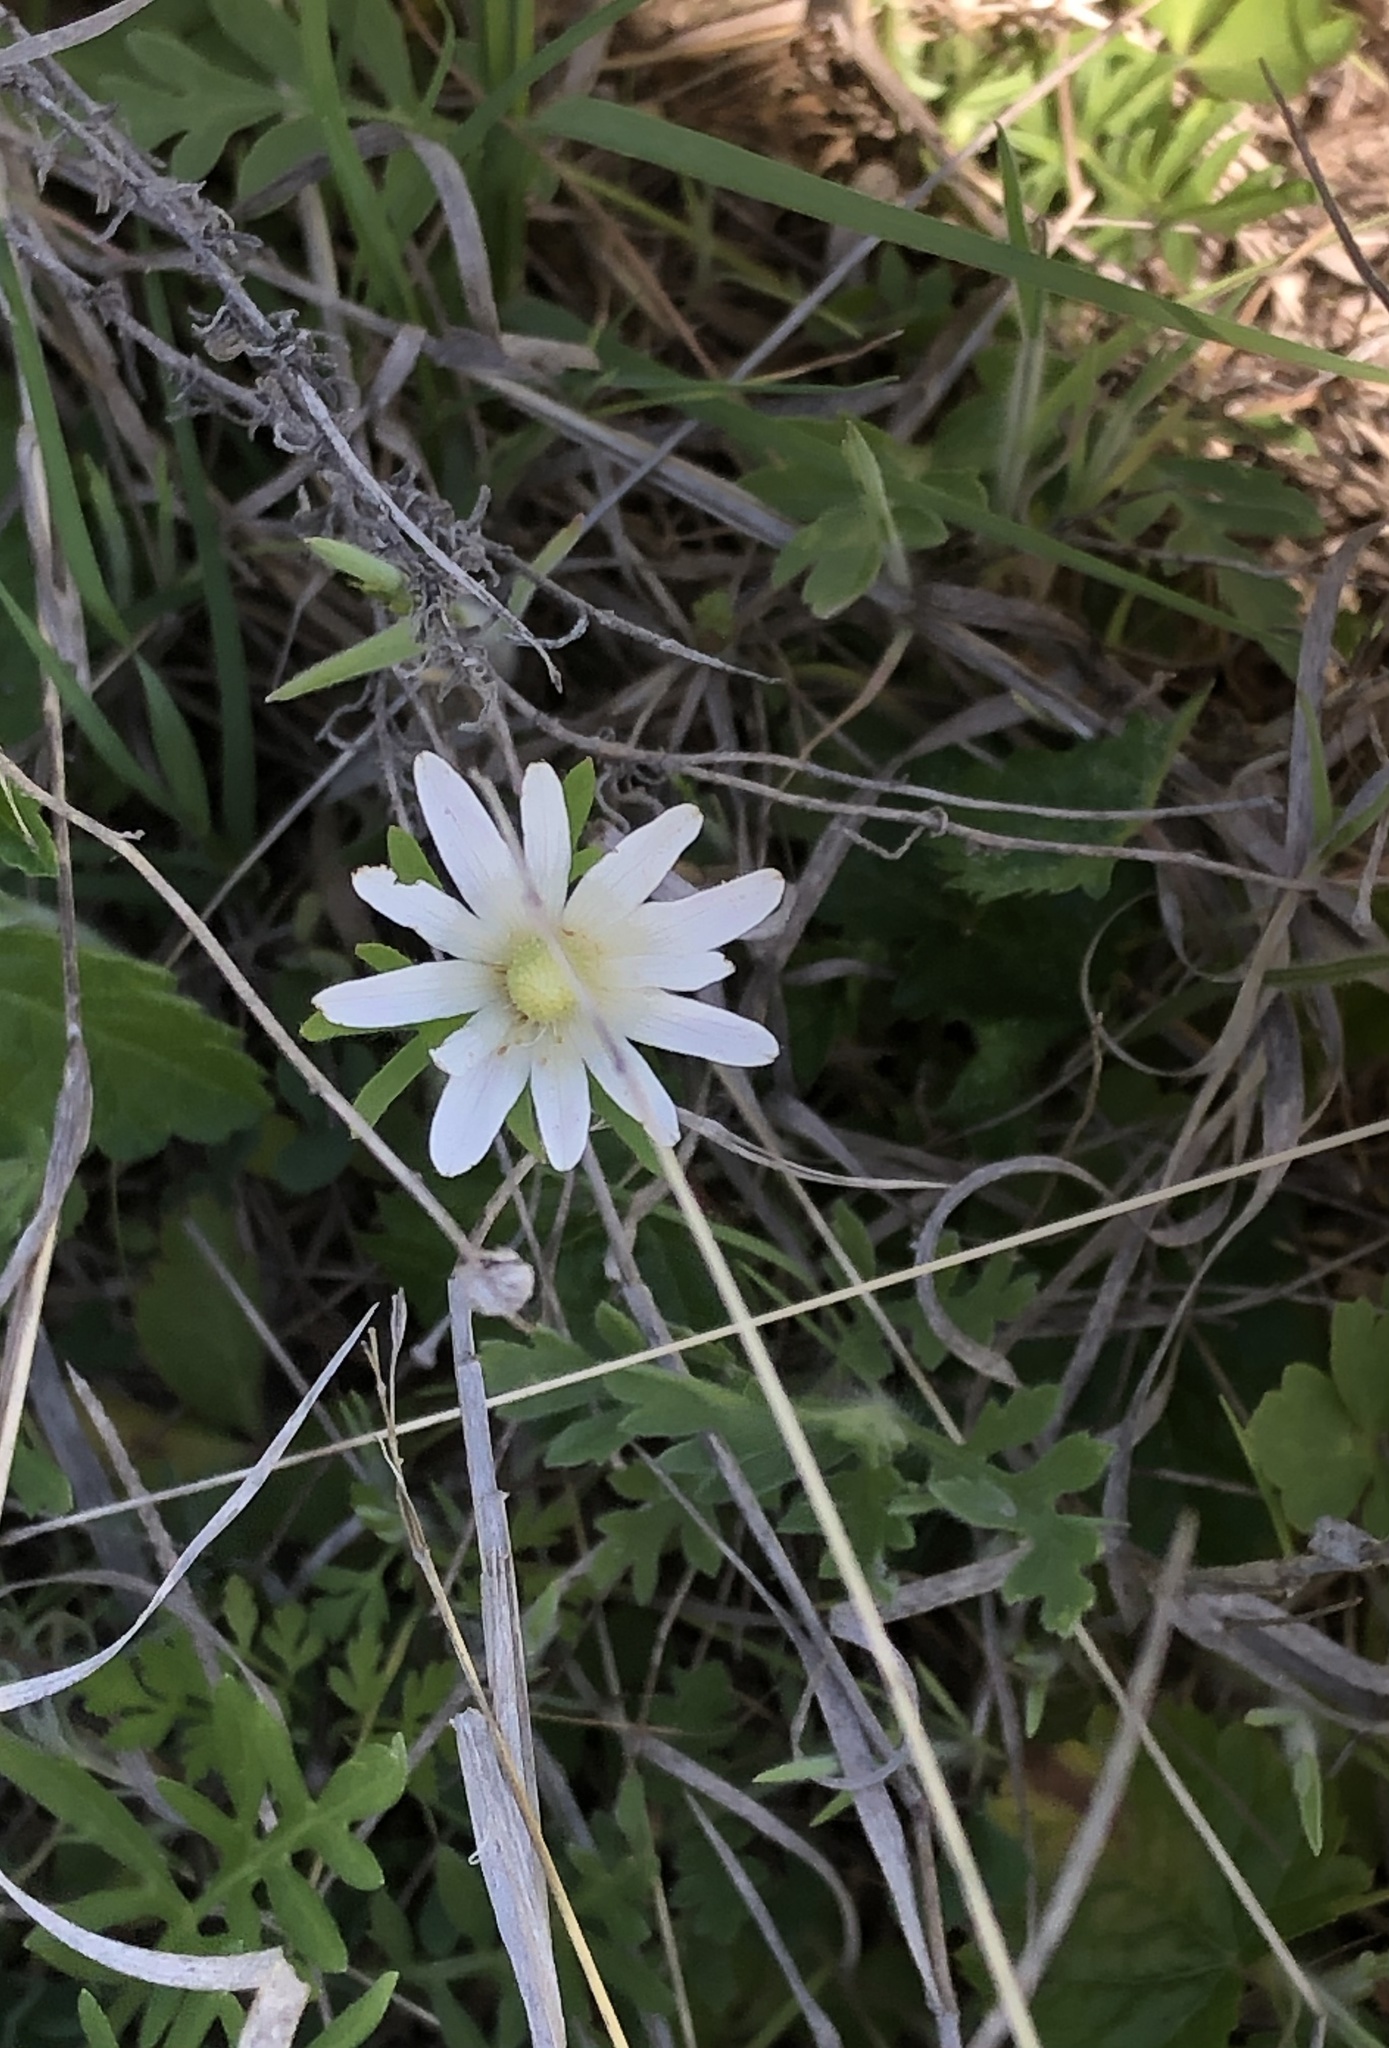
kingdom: Plantae
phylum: Tracheophyta
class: Magnoliopsida
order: Ranunculales
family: Ranunculaceae
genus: Anemone
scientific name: Anemone berlandieri
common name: Ten-petal anemone
